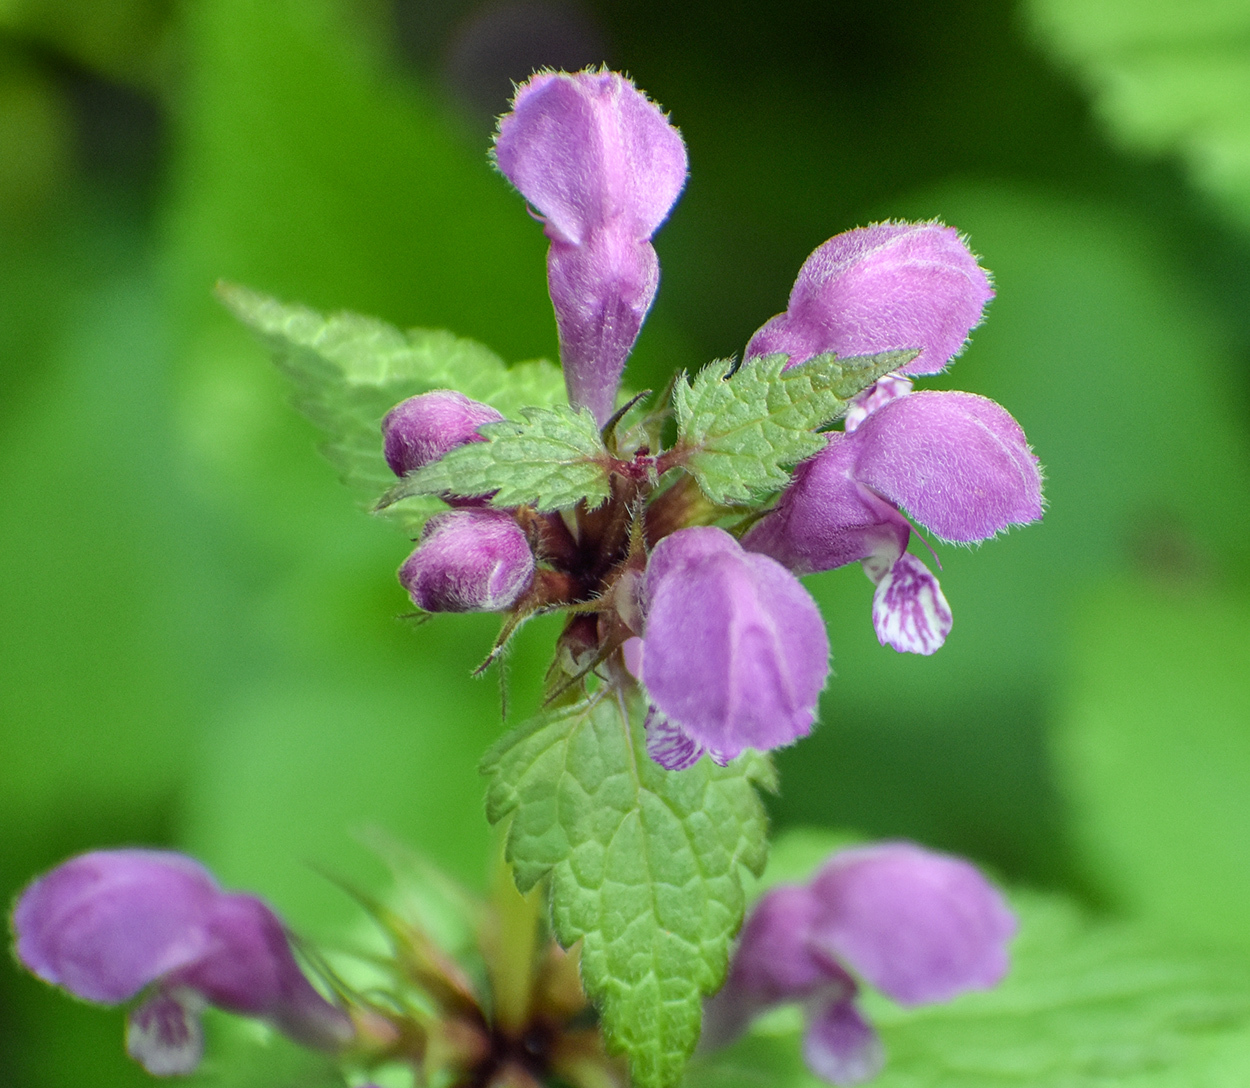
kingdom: Plantae
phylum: Tracheophyta
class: Magnoliopsida
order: Lamiales
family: Lamiaceae
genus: Lamium
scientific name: Lamium maculatum
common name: Spotted dead-nettle
